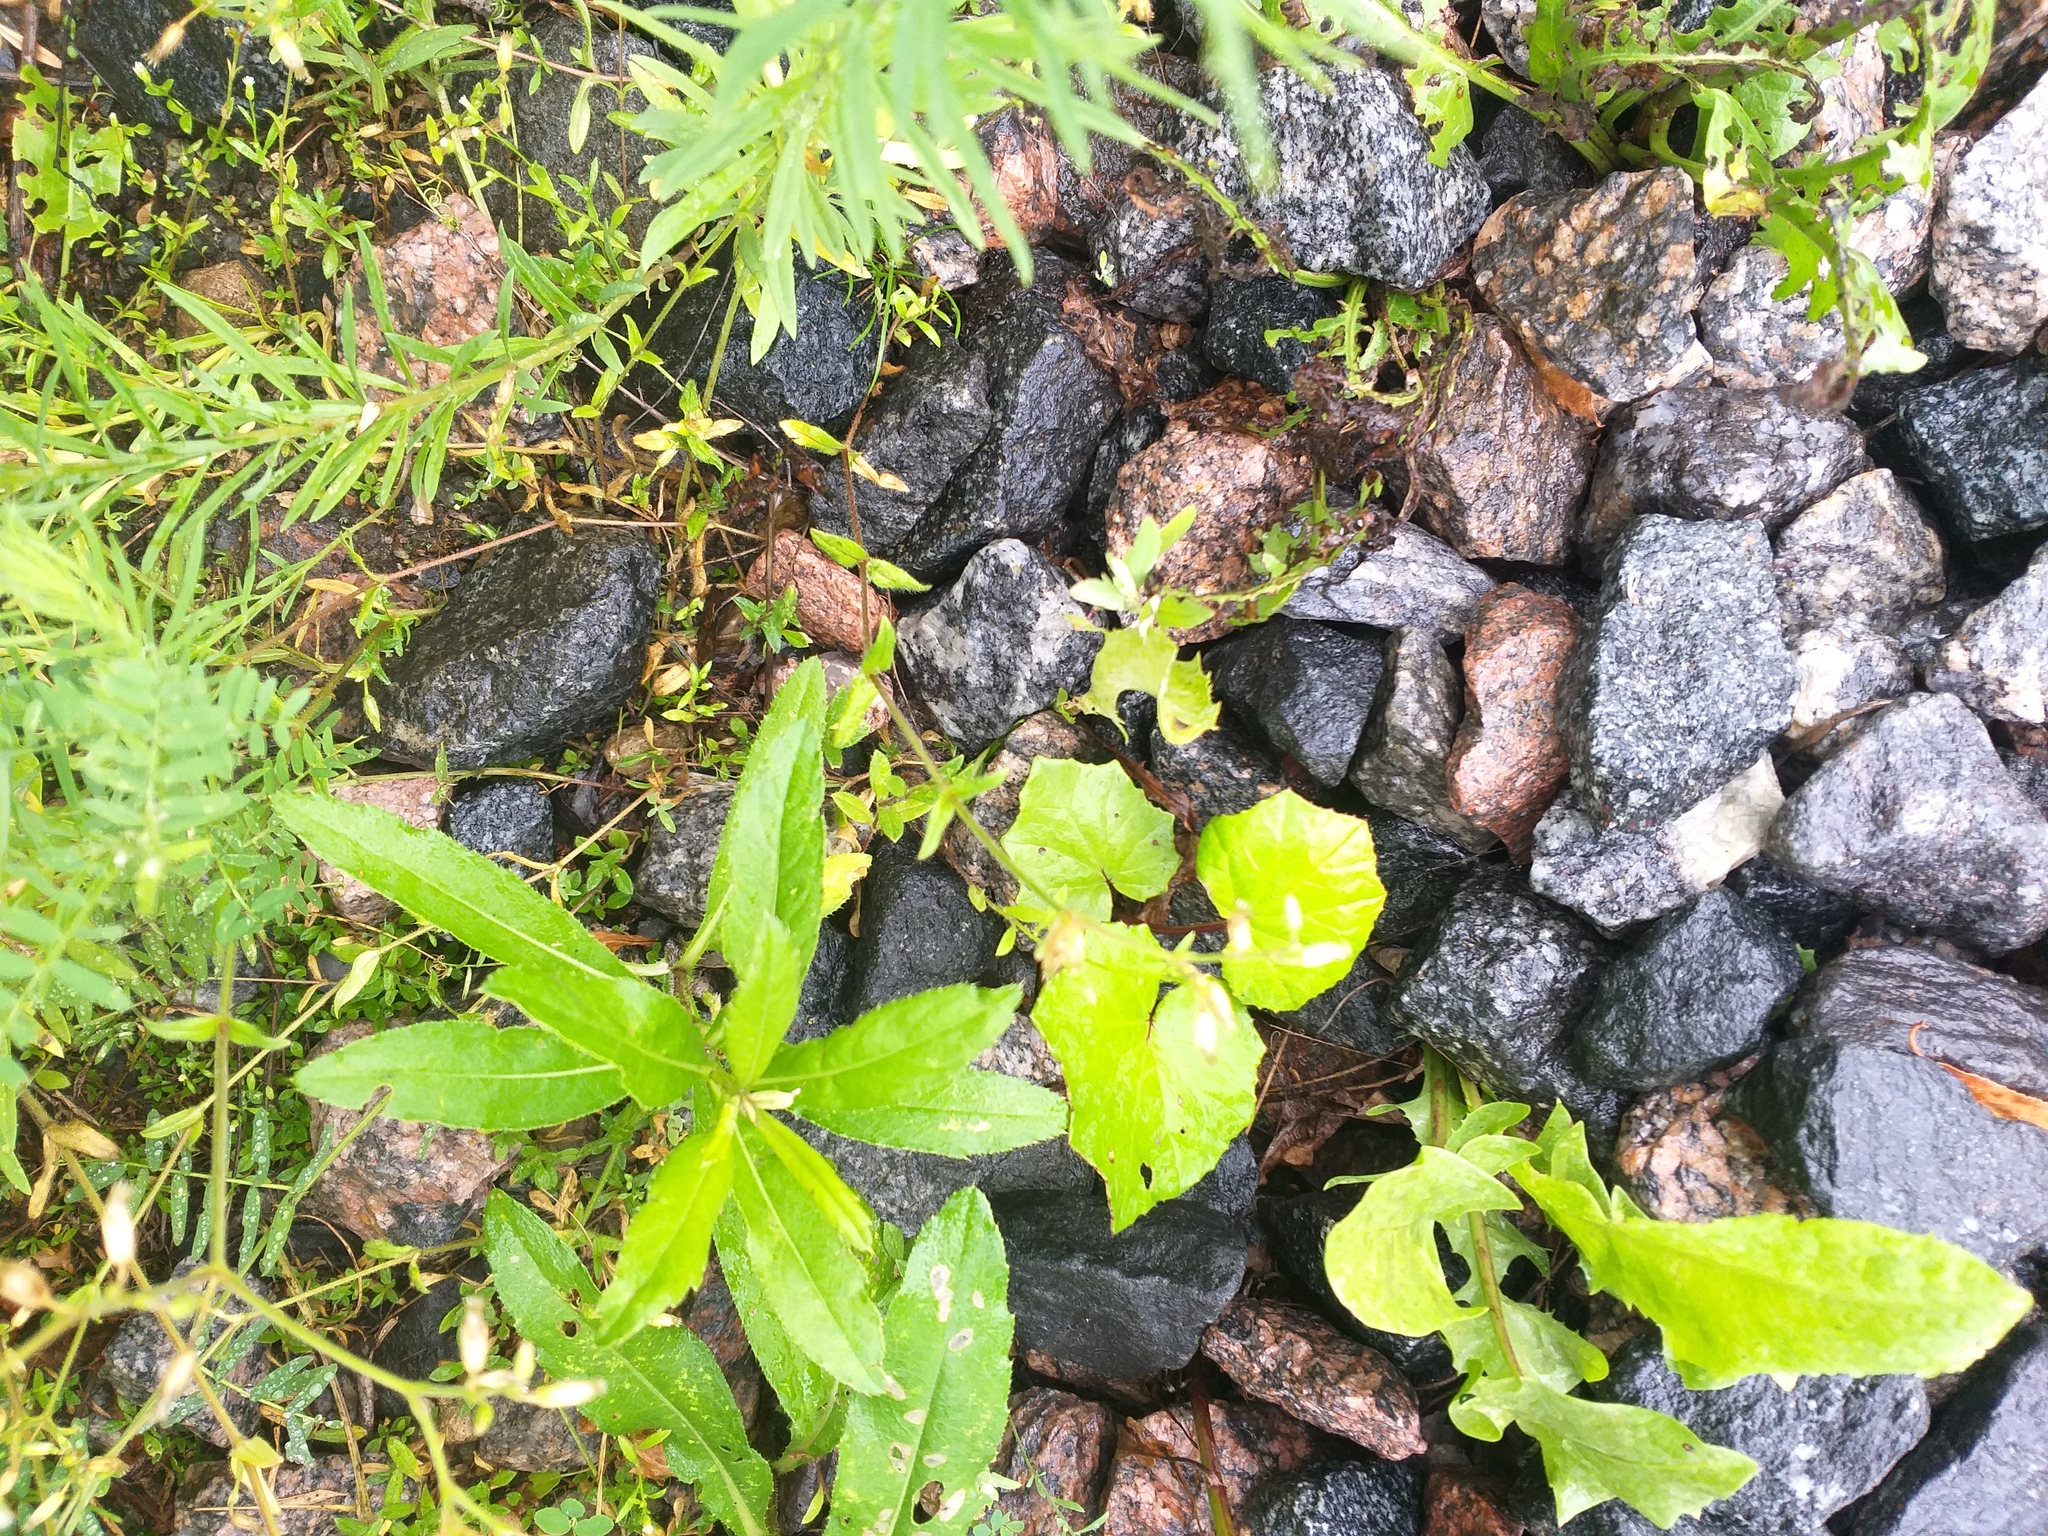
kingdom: Plantae
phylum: Tracheophyta
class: Magnoliopsida
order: Caryophyllales
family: Caryophyllaceae
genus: Cerastium
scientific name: Cerastium holosteoides
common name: Big chickweed
